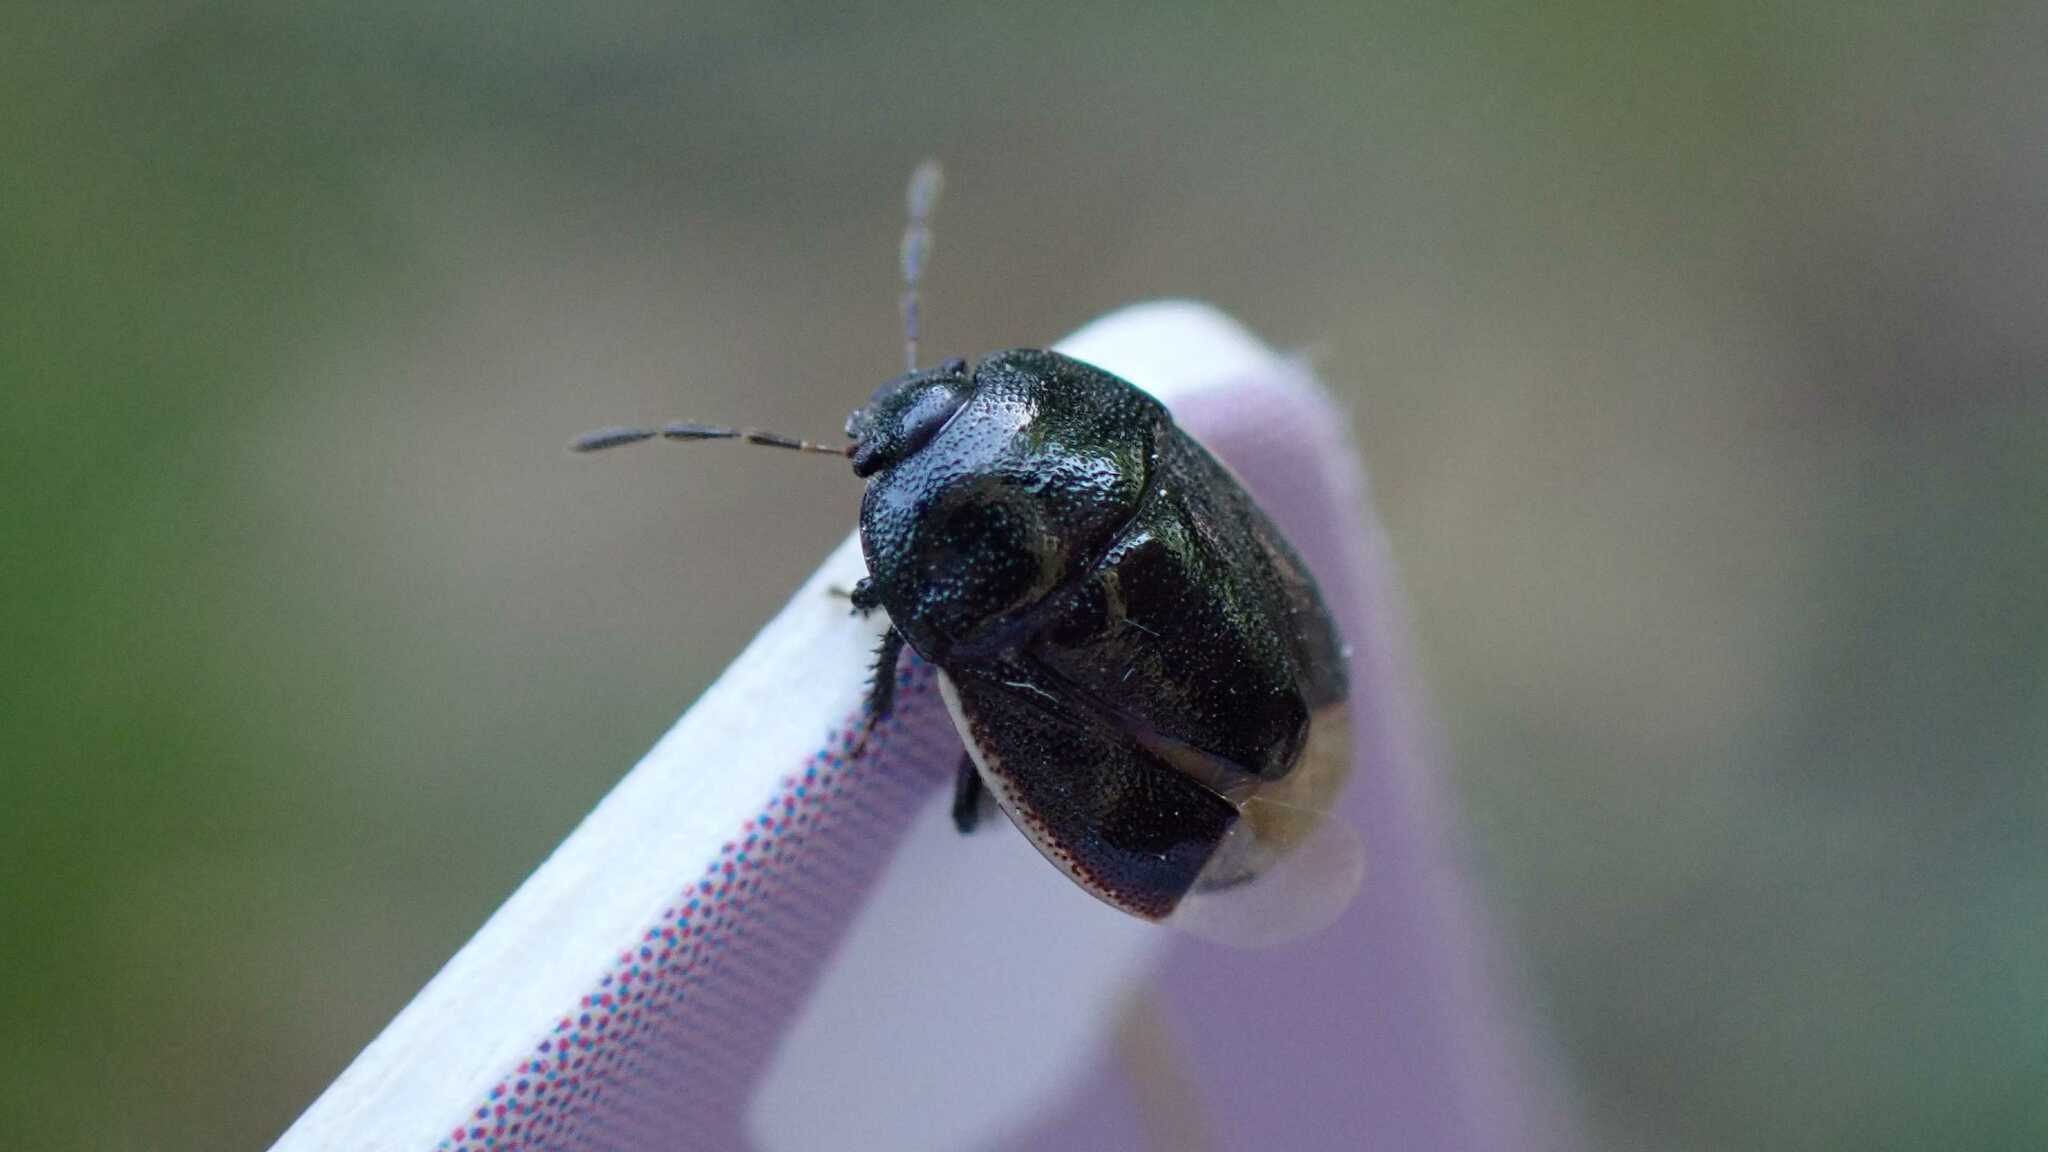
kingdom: Animalia
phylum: Arthropoda
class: Insecta
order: Hemiptera
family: Cydnidae
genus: Legnotus
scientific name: Legnotus limbosus
